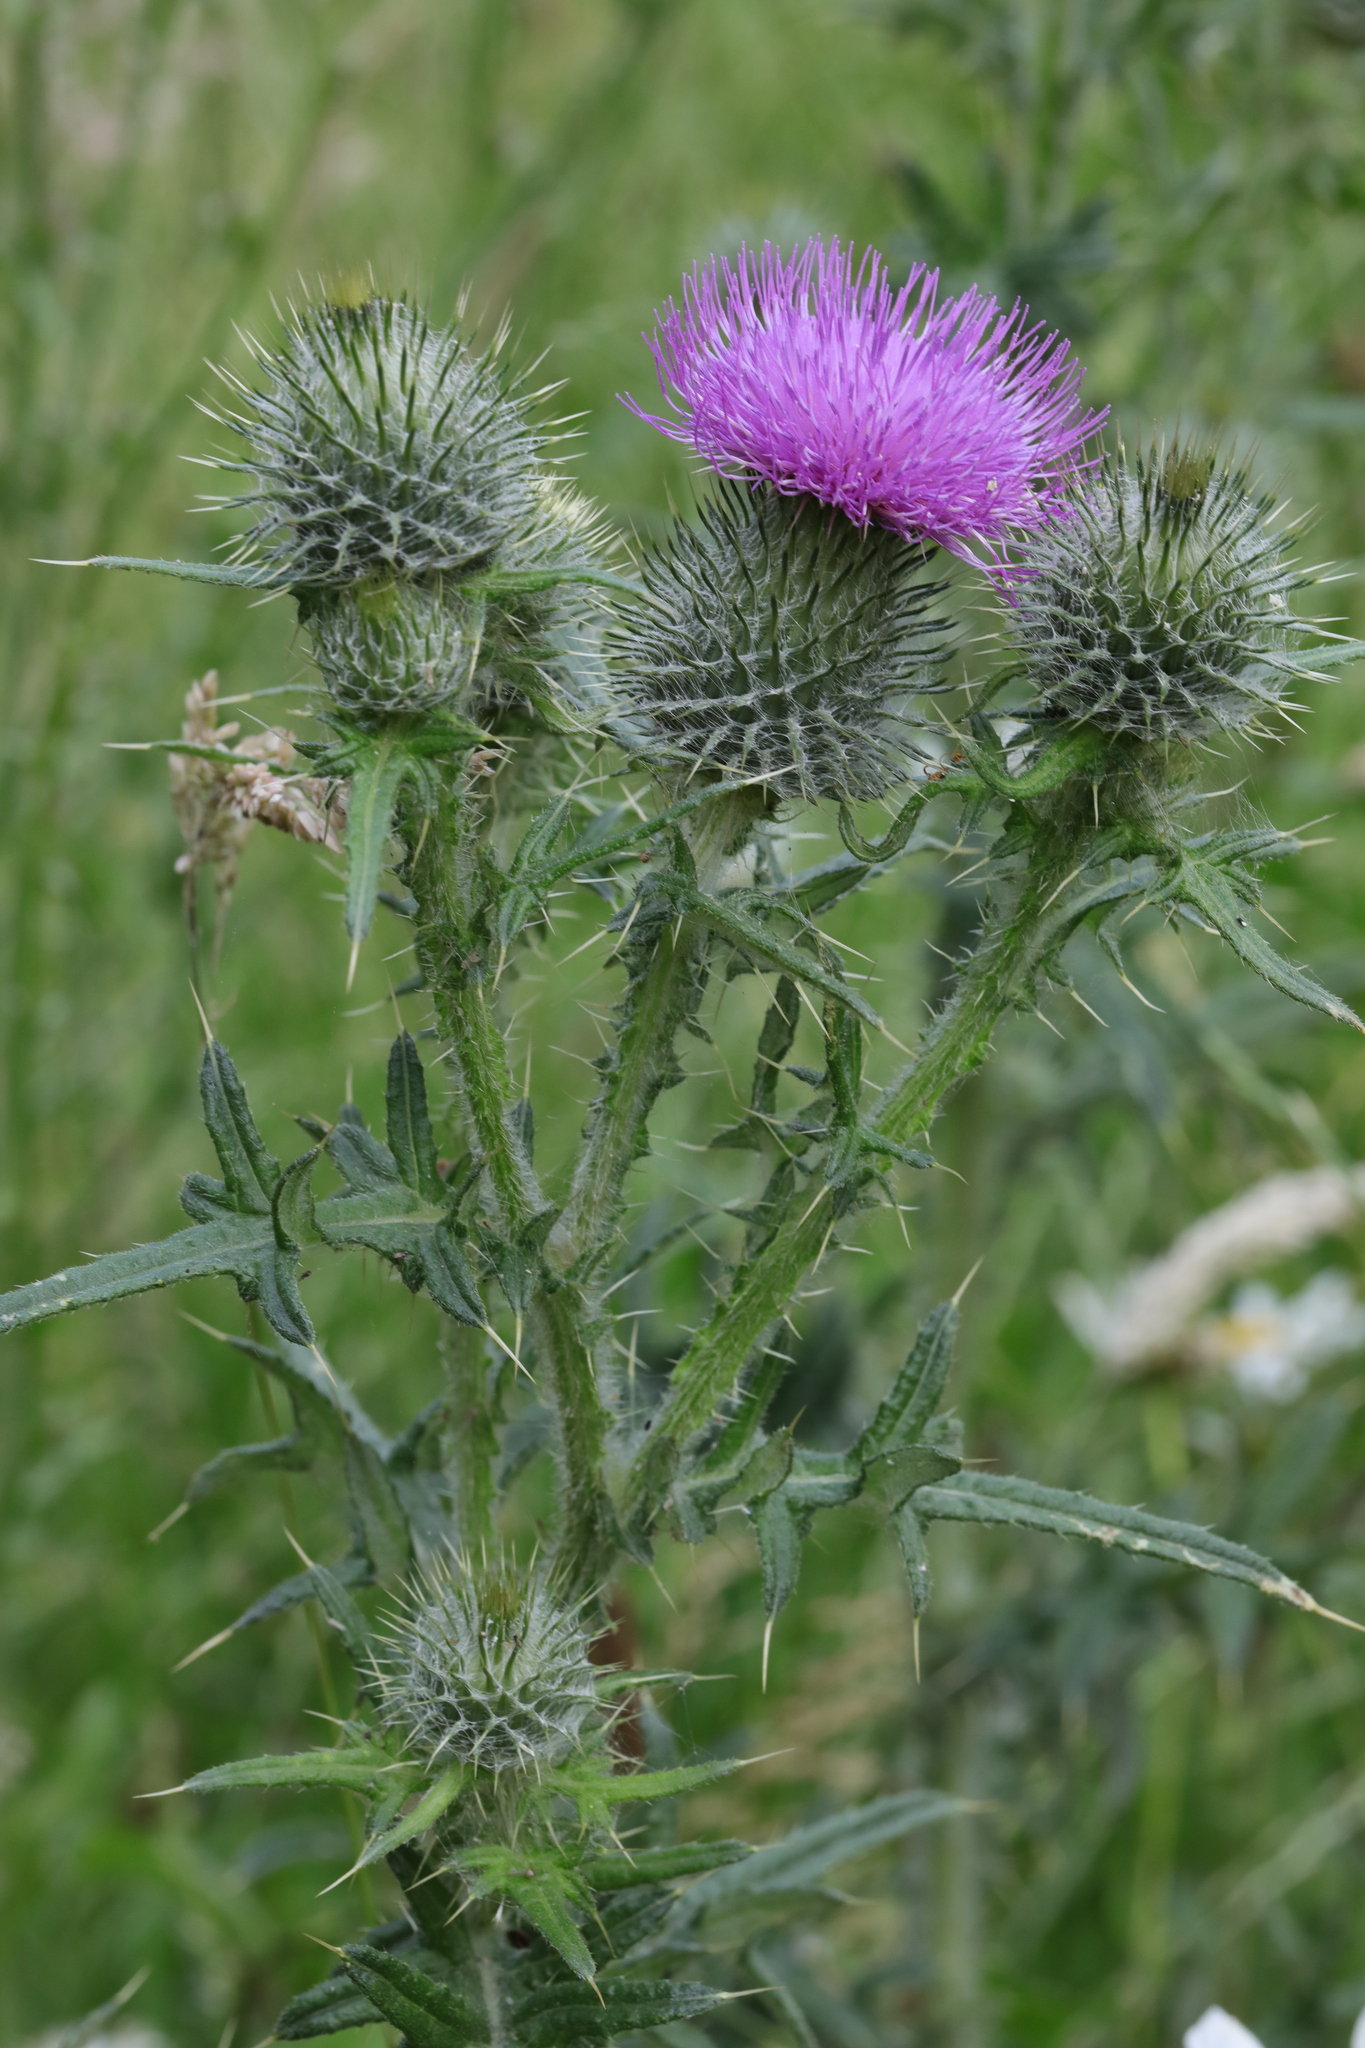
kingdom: Plantae
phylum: Tracheophyta
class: Magnoliopsida
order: Asterales
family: Asteraceae
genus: Cirsium
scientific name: Cirsium vulgare
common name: Bull thistle
